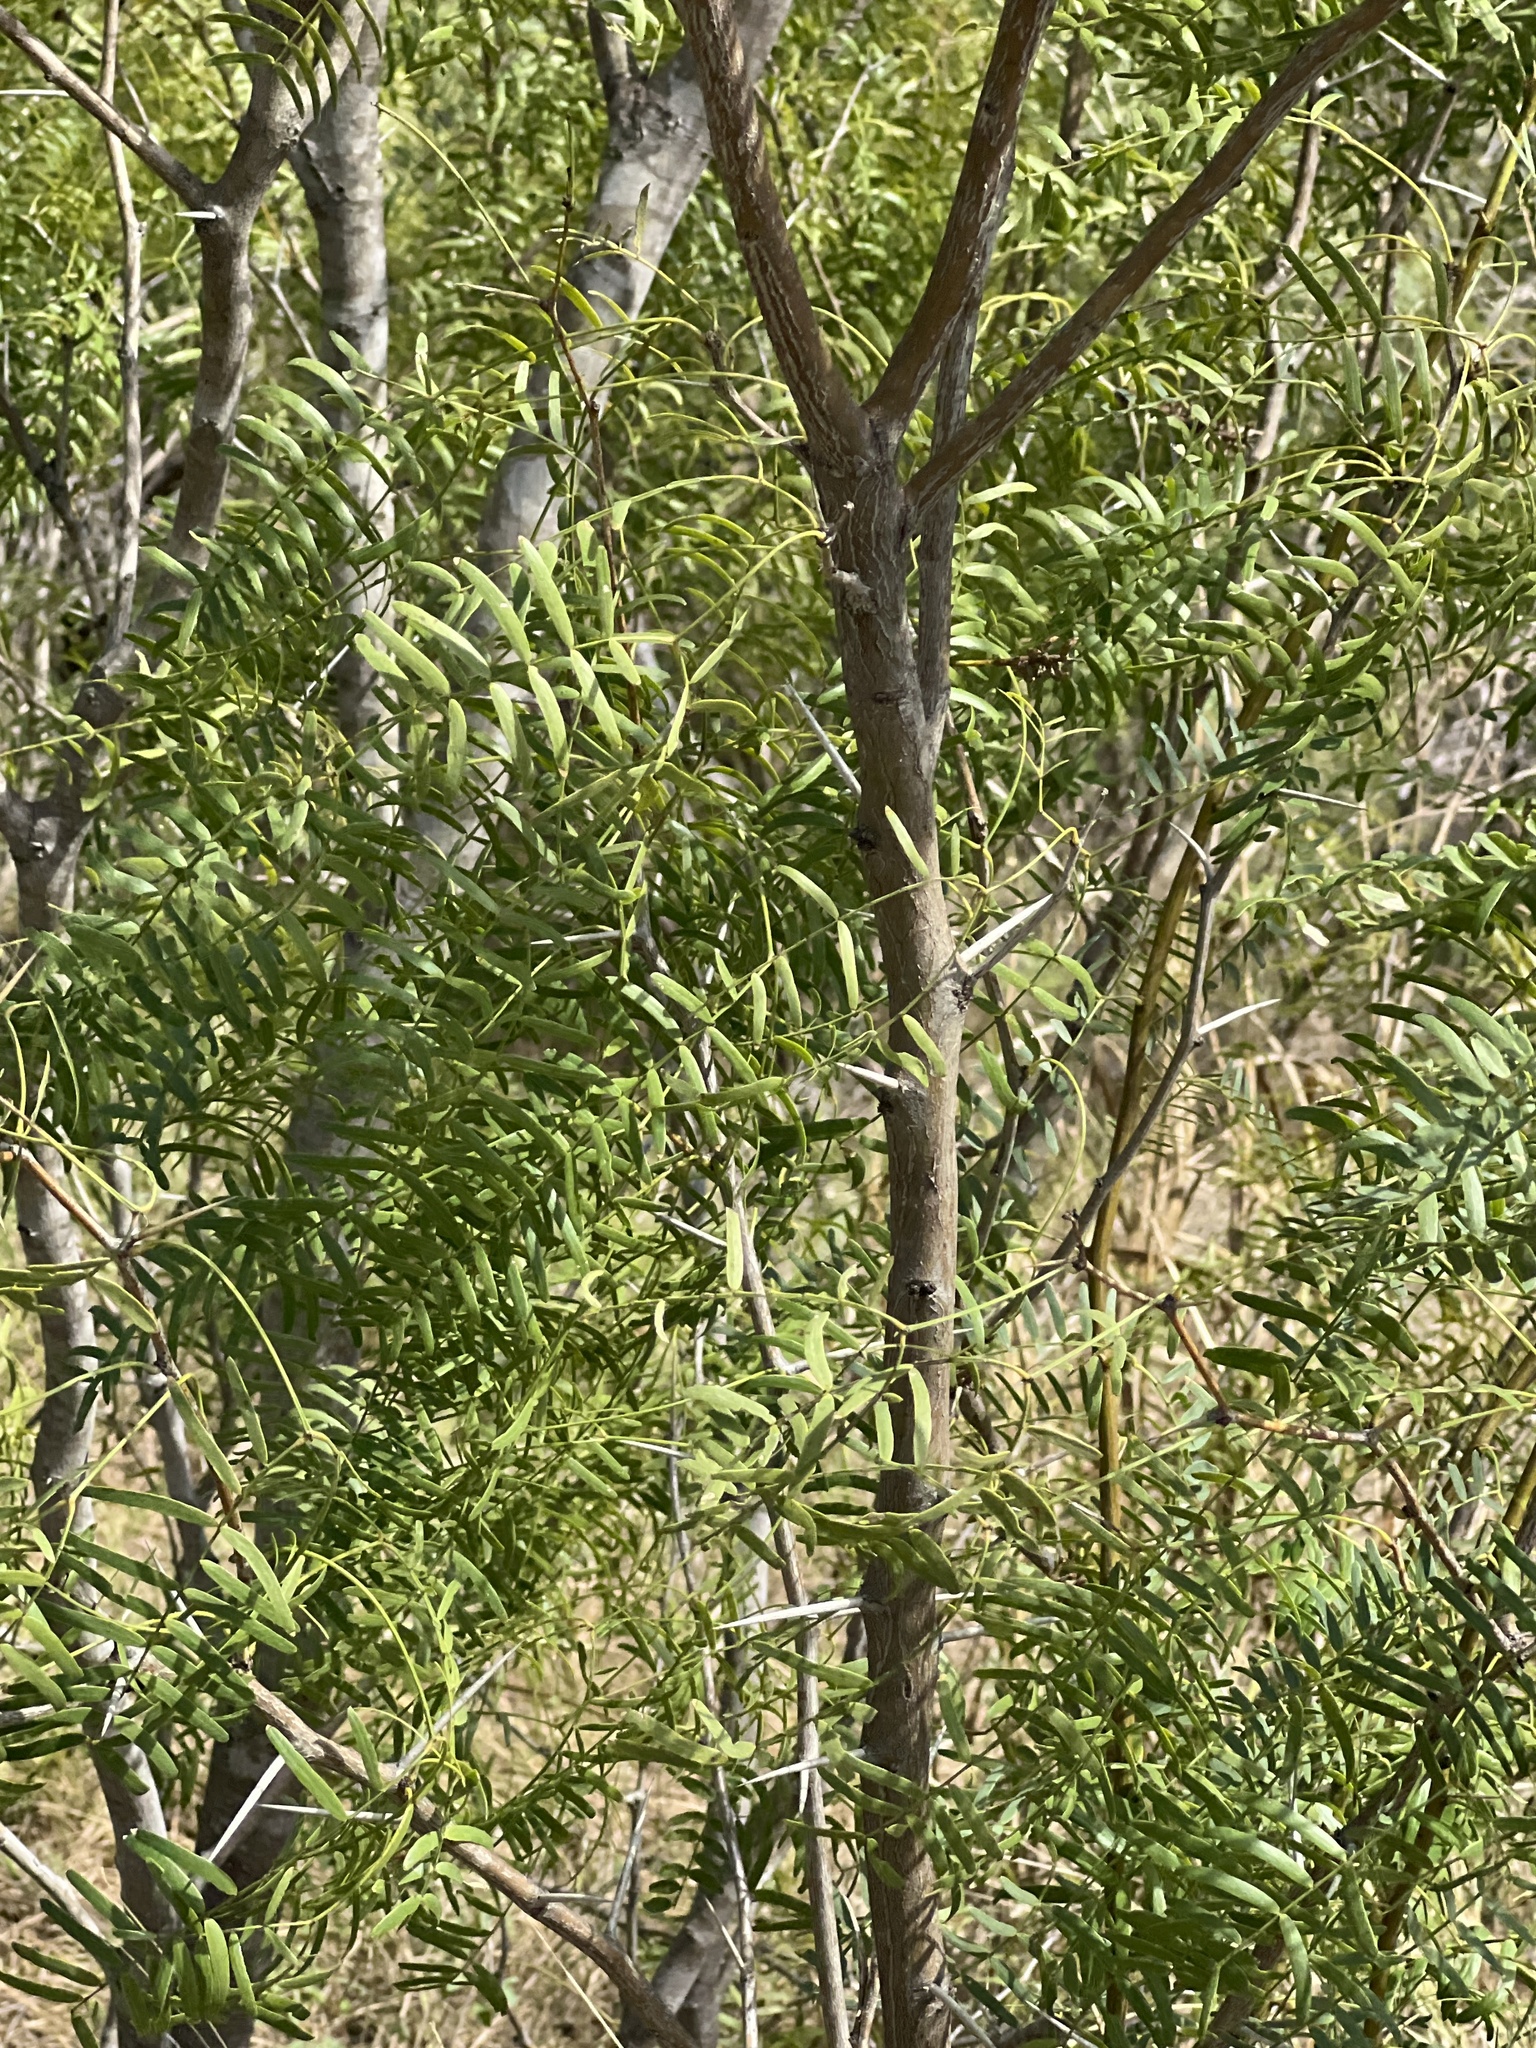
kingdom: Plantae
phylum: Tracheophyta
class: Magnoliopsida
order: Fabales
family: Fabaceae
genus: Prosopis
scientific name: Prosopis glandulosa
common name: Honey mesquite
